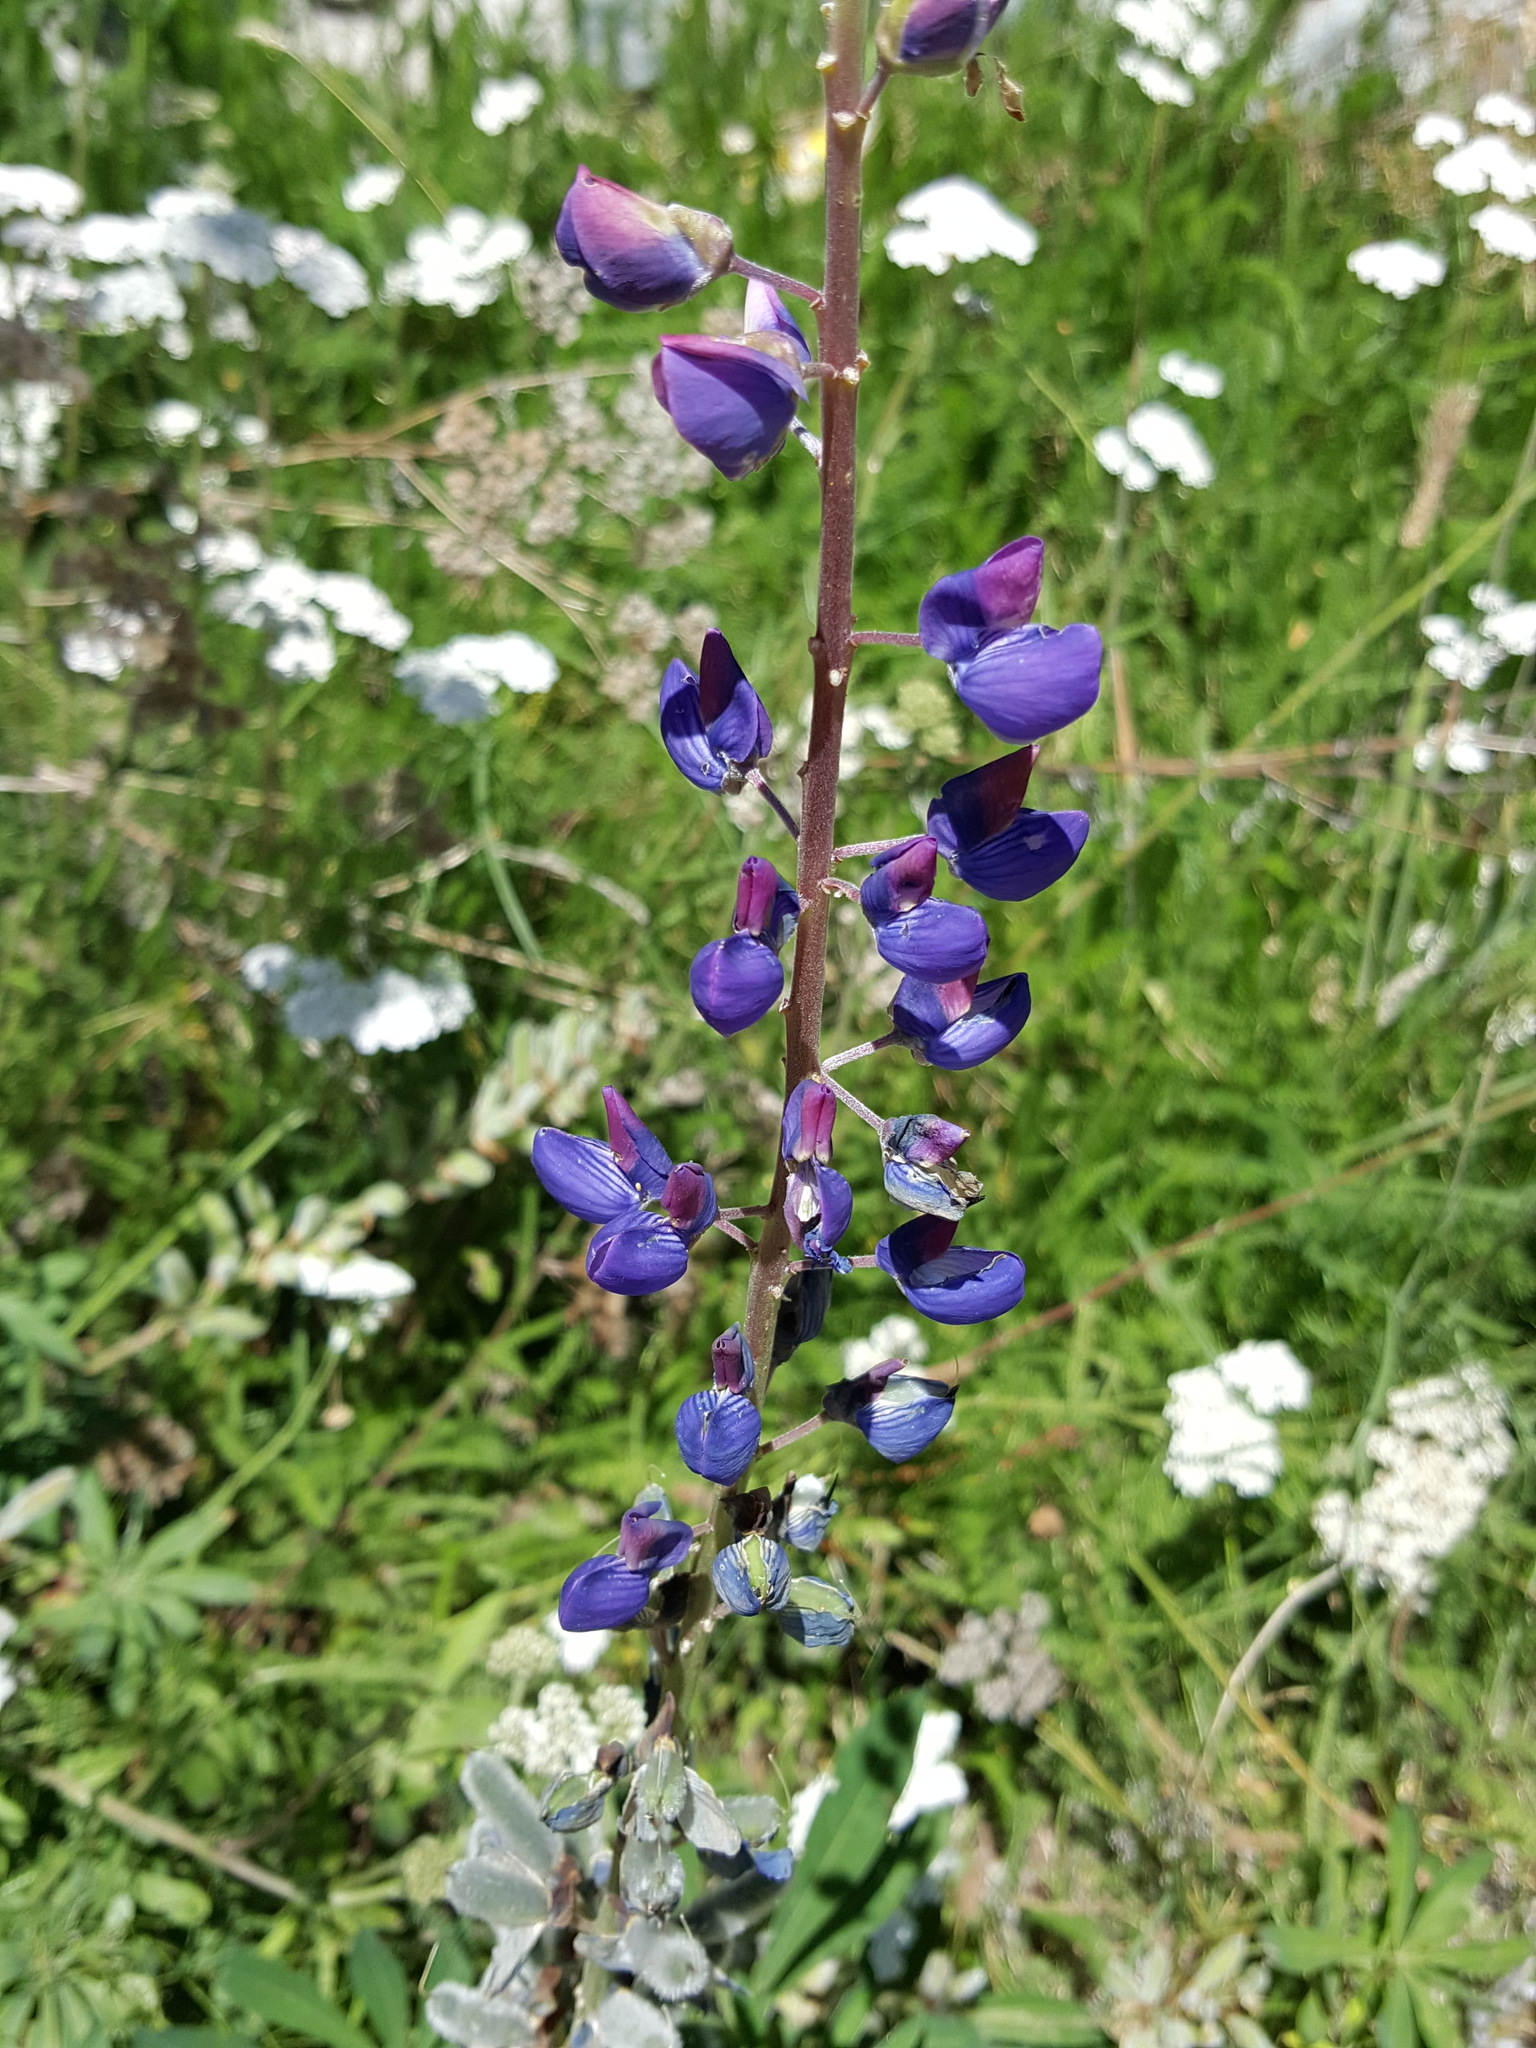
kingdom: Plantae
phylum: Tracheophyta
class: Magnoliopsida
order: Fabales
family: Fabaceae
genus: Lupinus
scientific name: Lupinus polyphyllus
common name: Garden lupin
